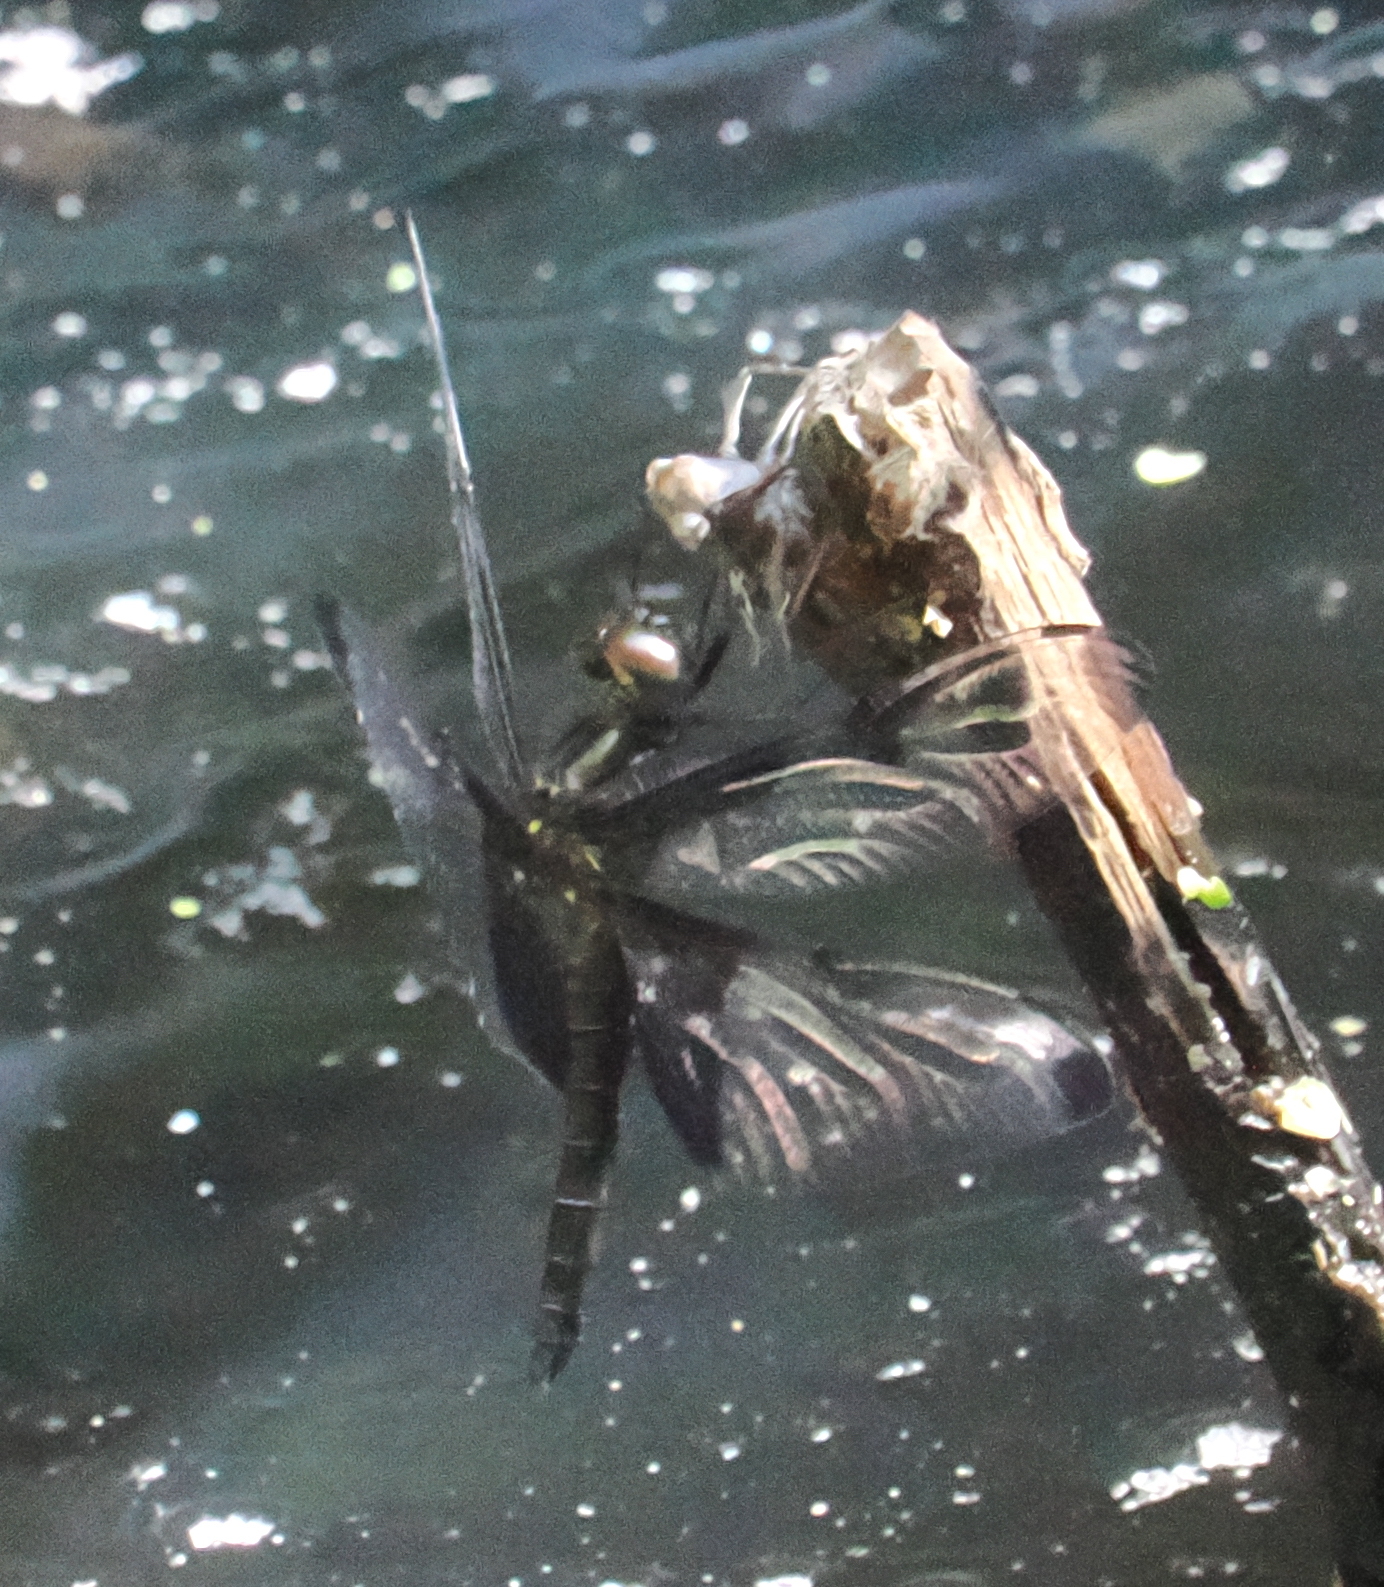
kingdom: Animalia
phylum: Arthropoda
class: Insecta
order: Odonata
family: Libellulidae
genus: Atratothemis
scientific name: Atratothemis reelsi
